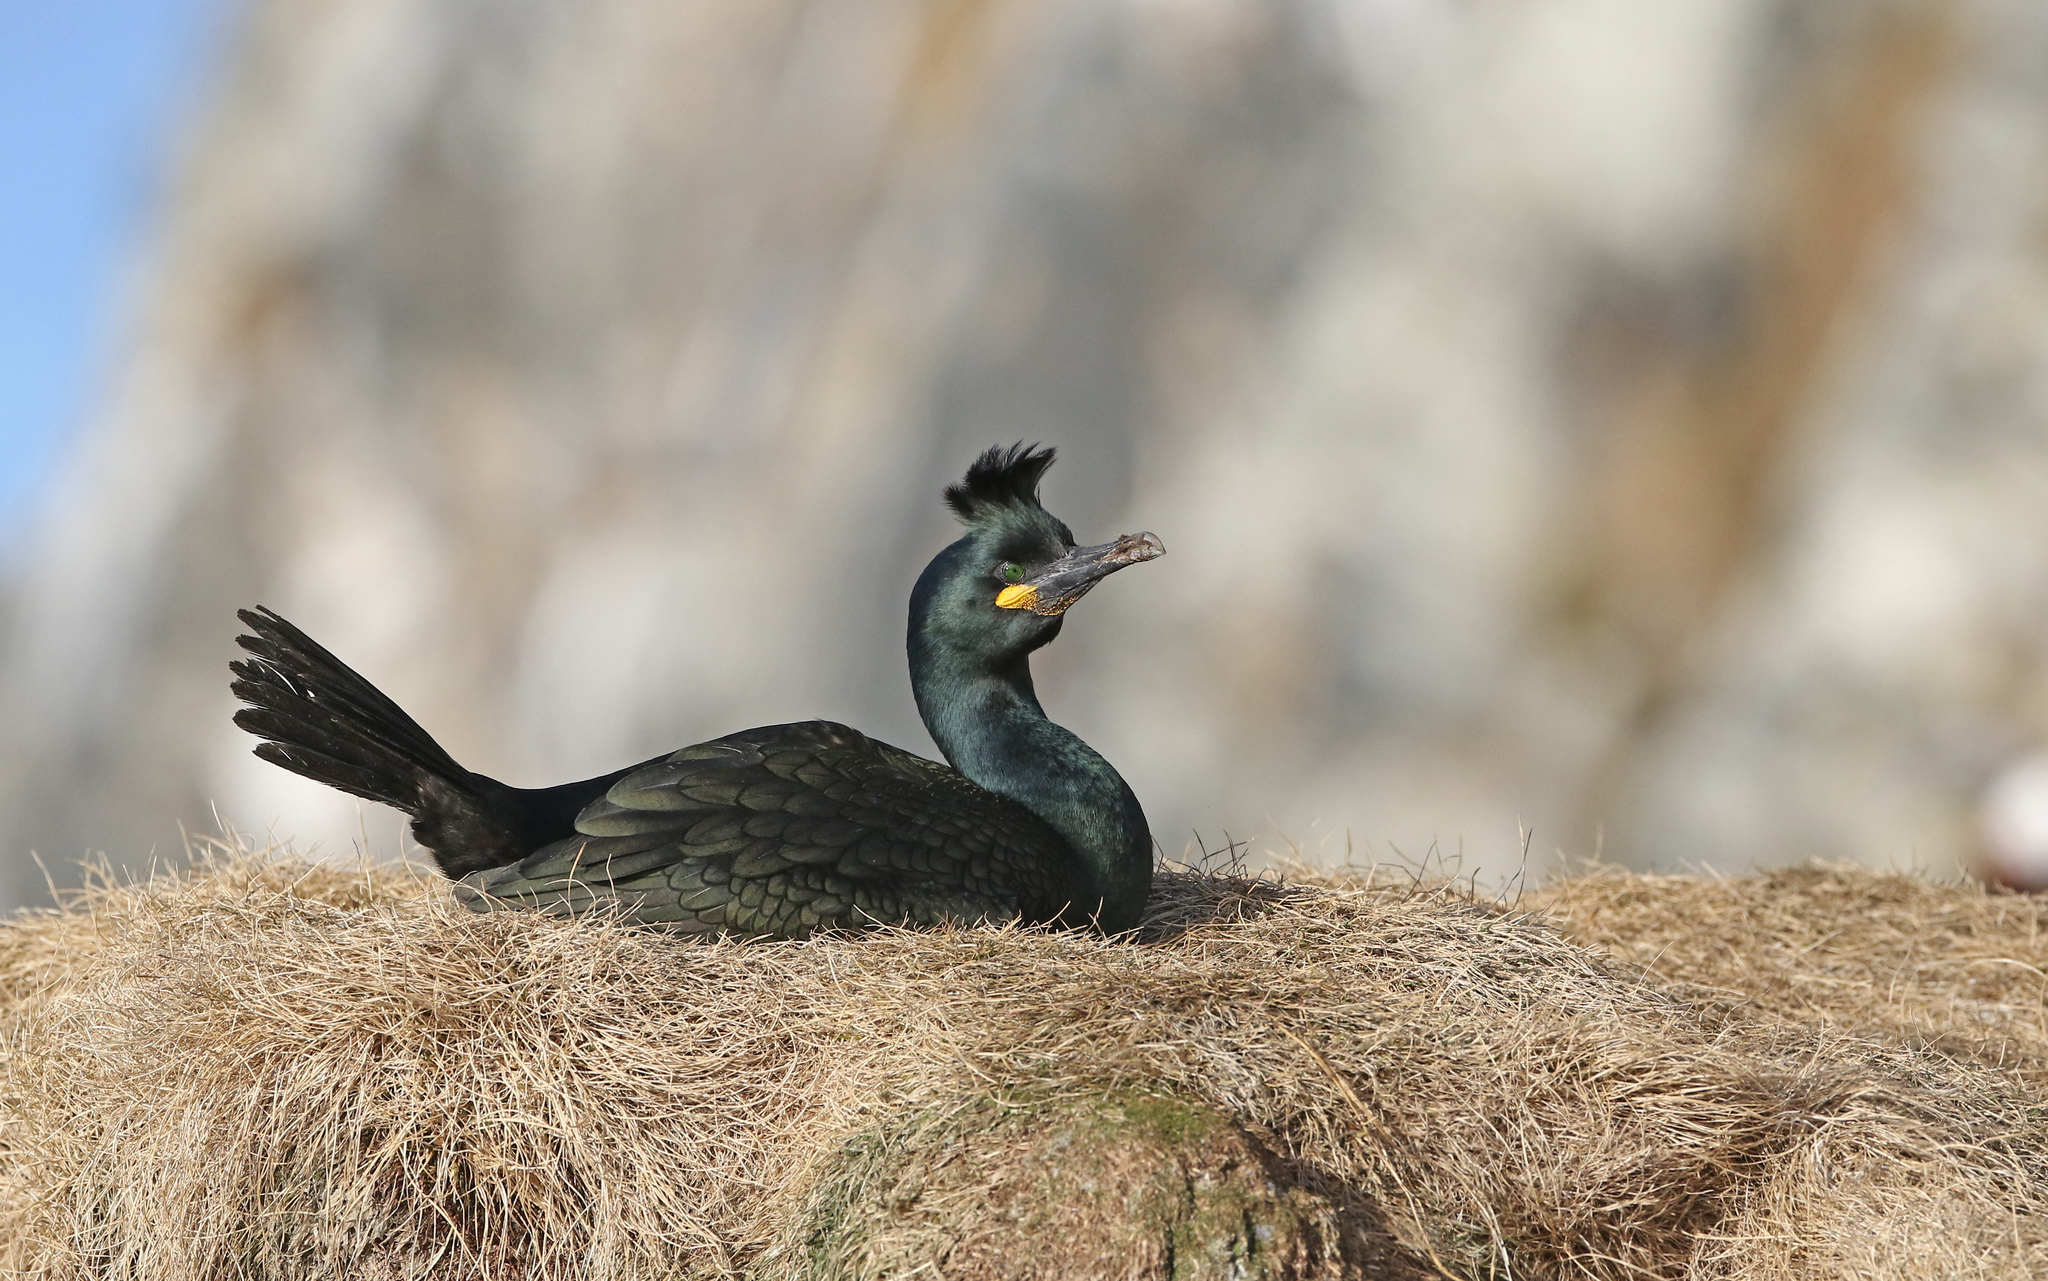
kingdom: Animalia
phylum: Chordata
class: Aves
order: Suliformes
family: Phalacrocoracidae
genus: Phalacrocorax
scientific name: Phalacrocorax aristotelis
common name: European shag
